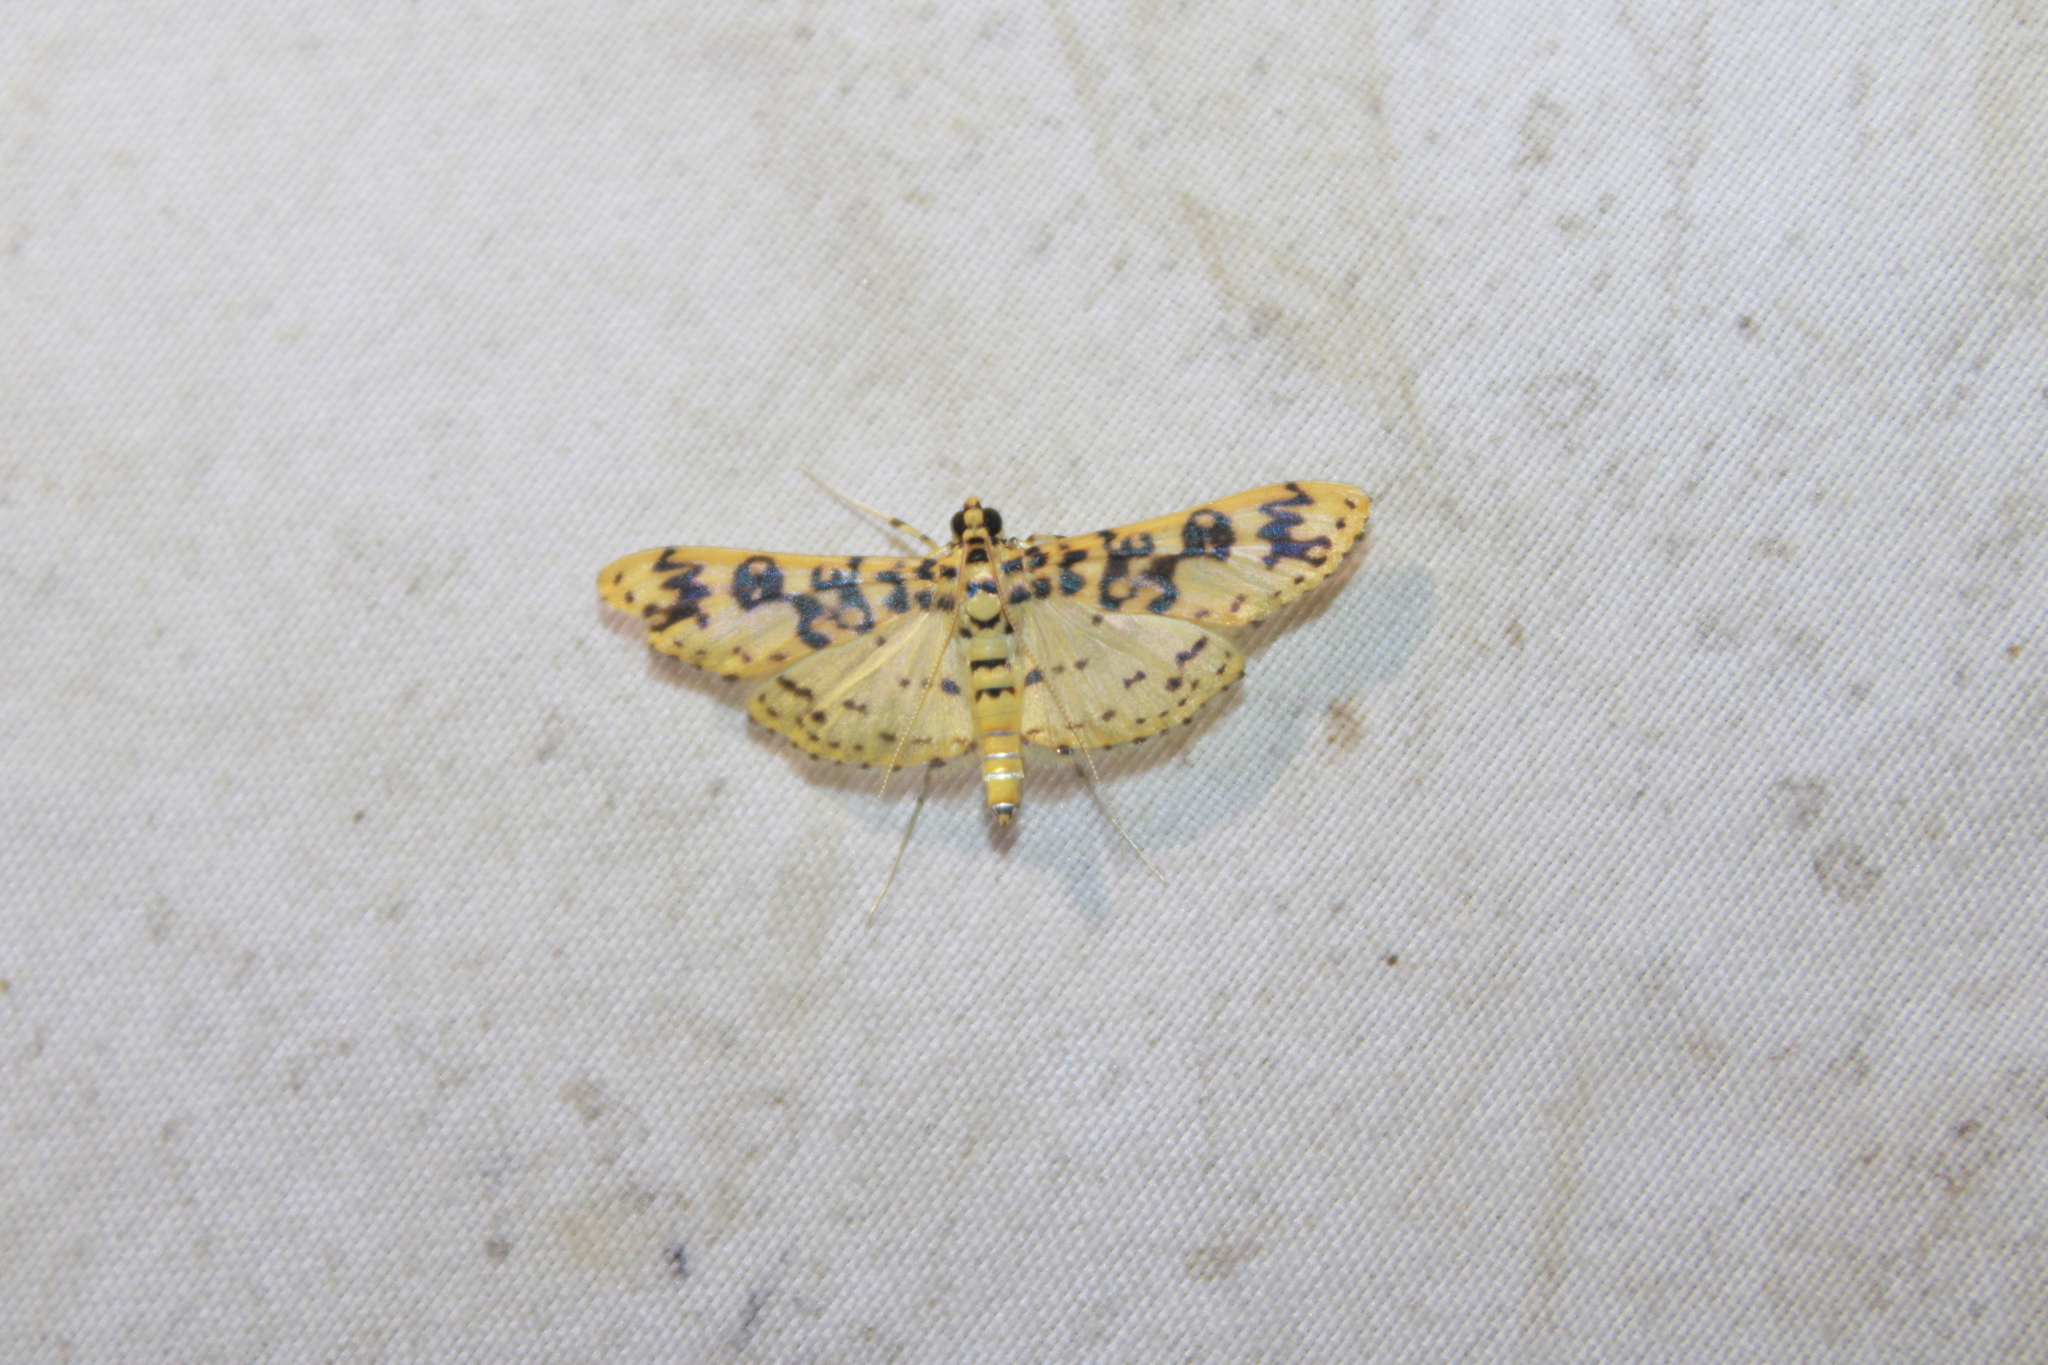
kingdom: Animalia
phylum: Arthropoda
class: Insecta
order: Lepidoptera
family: Crambidae
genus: Asturodes
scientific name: Asturodes fimbriauralis
